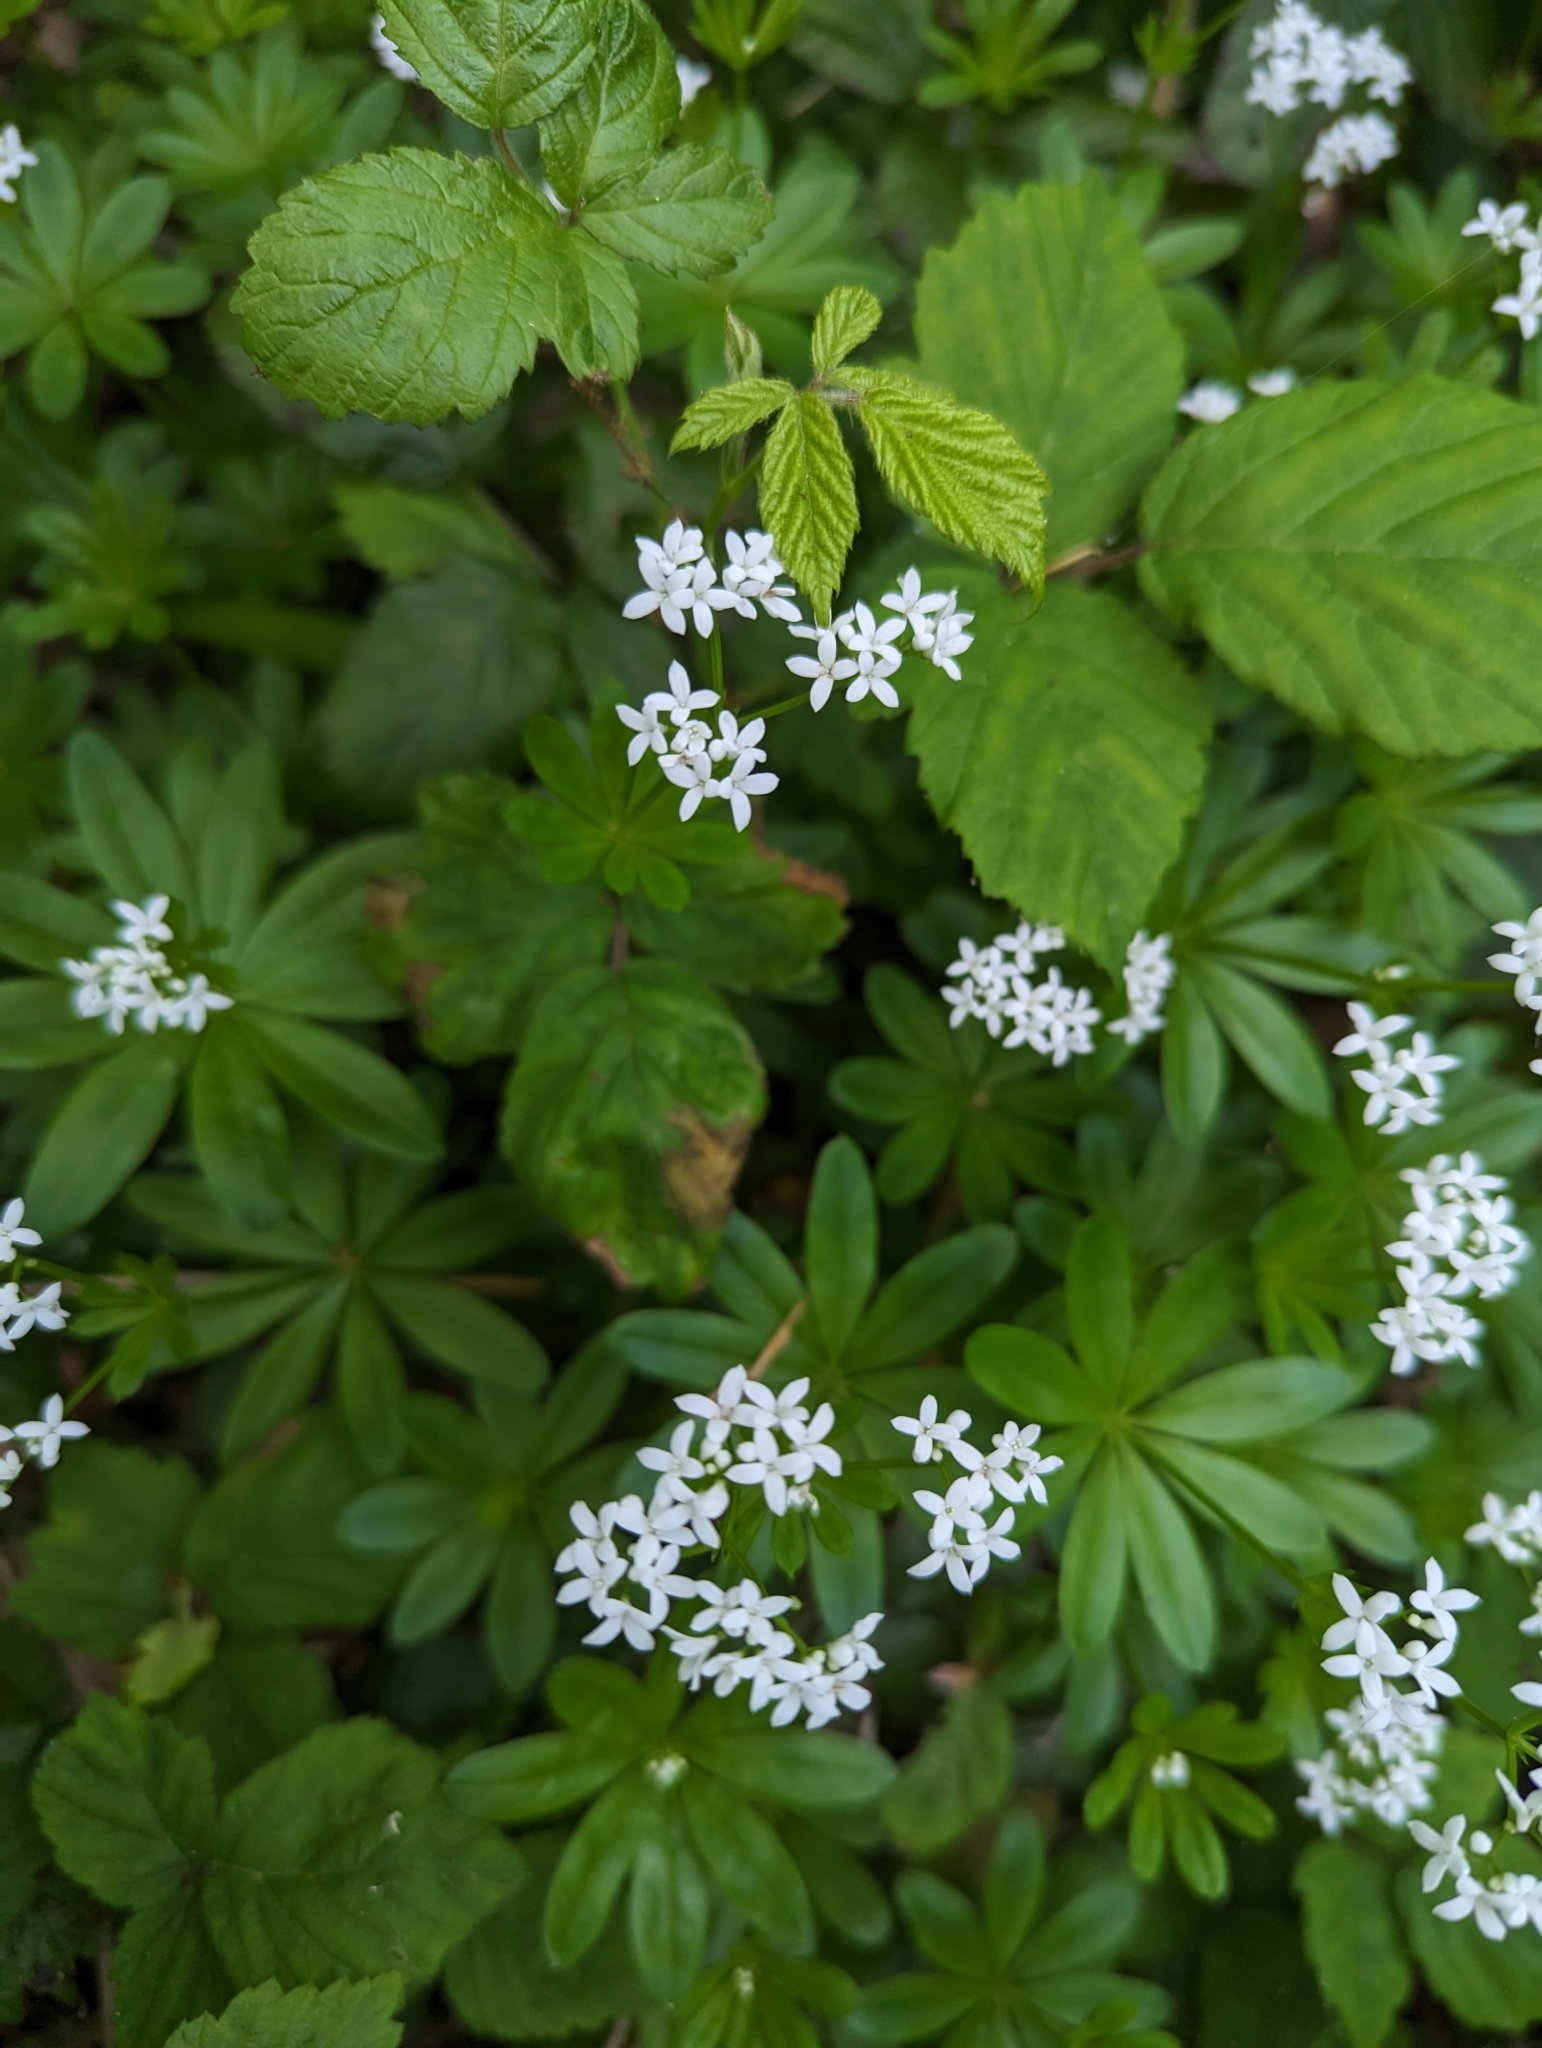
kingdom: Plantae
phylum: Tracheophyta
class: Magnoliopsida
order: Gentianales
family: Rubiaceae
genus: Galium
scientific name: Galium odoratum
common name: Sweet woodruff
